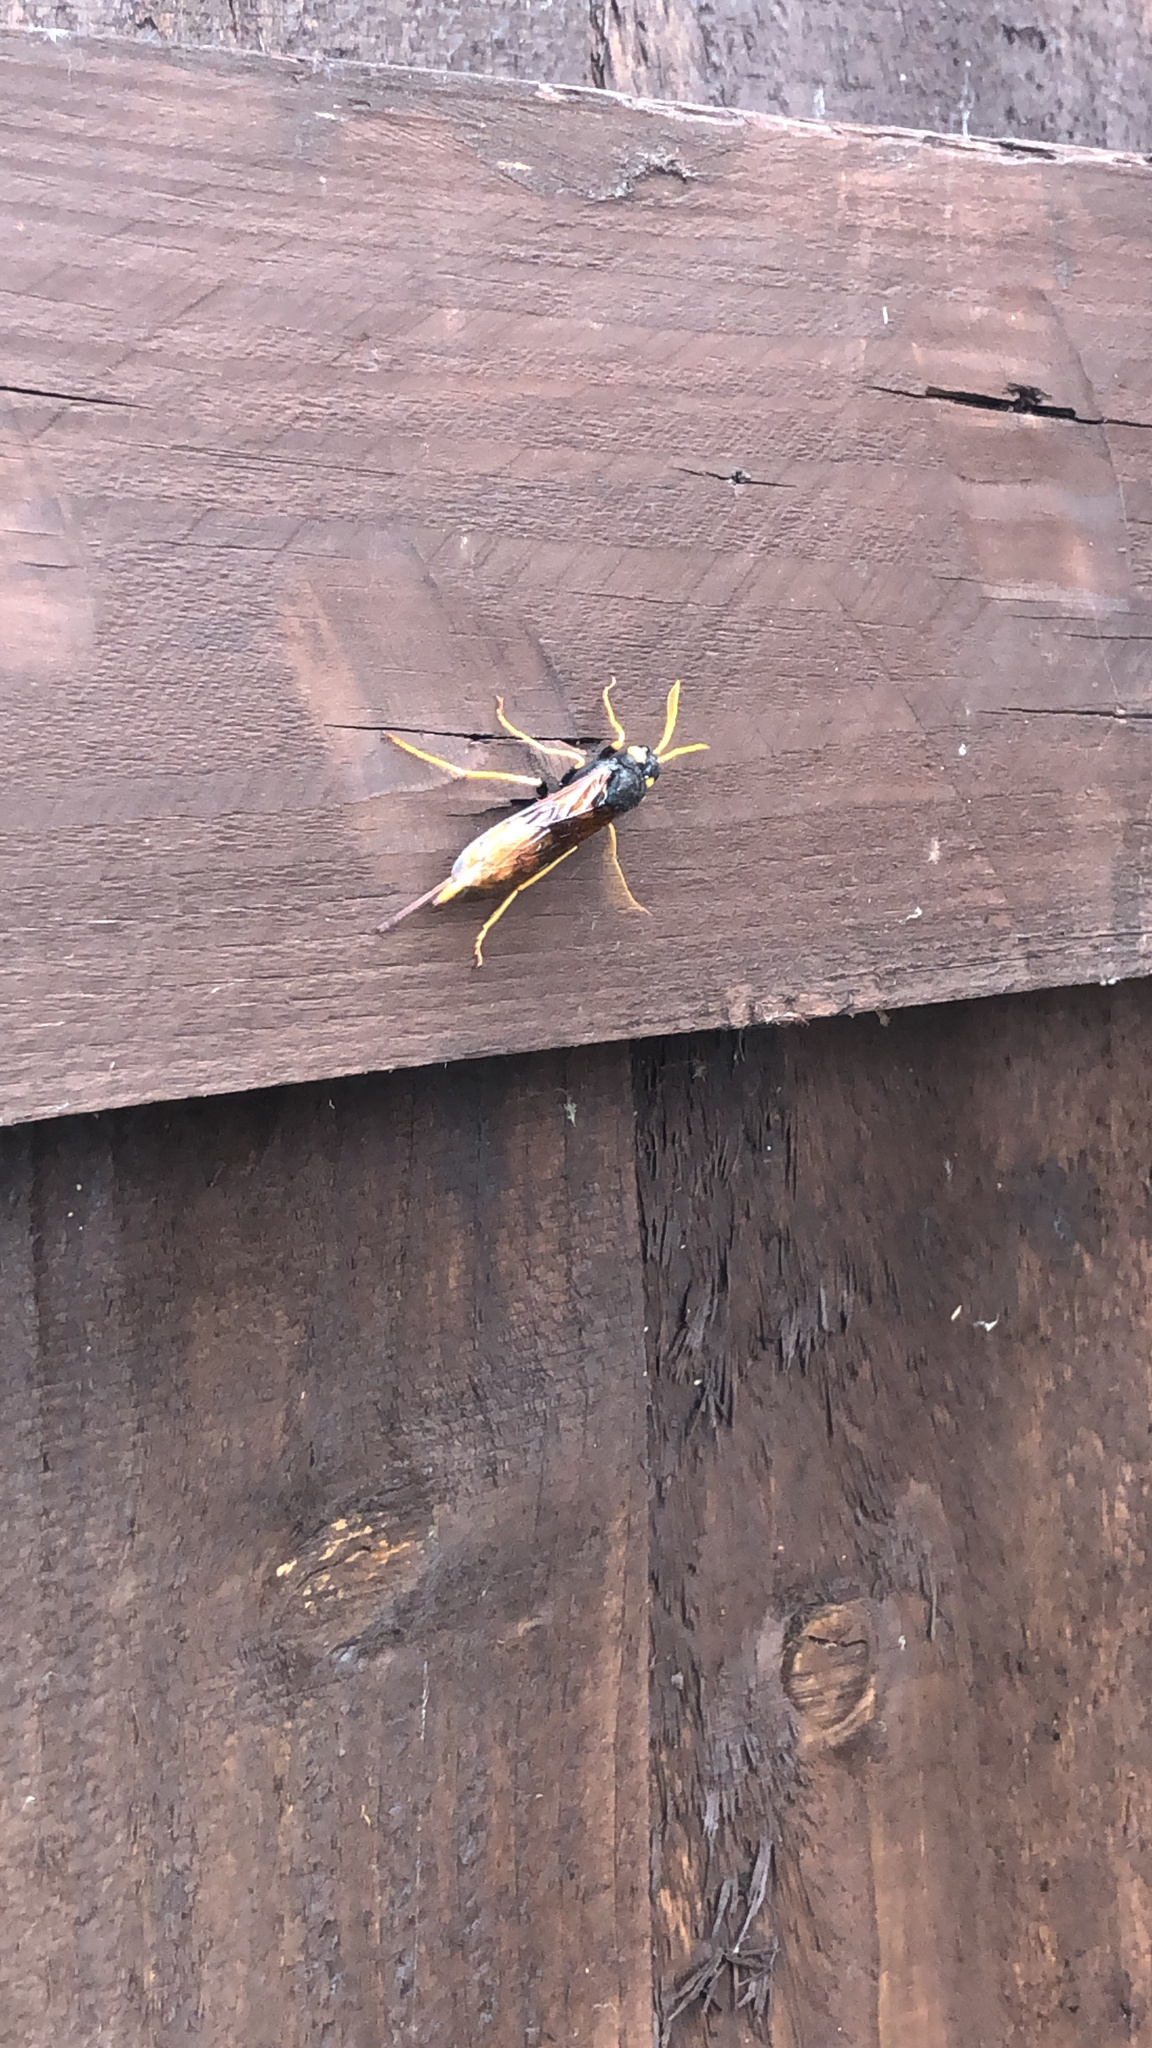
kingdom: Animalia
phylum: Arthropoda
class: Insecta
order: Hymenoptera
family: Siricidae
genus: Urocerus
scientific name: Urocerus gigas
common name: Giant woodwasp
